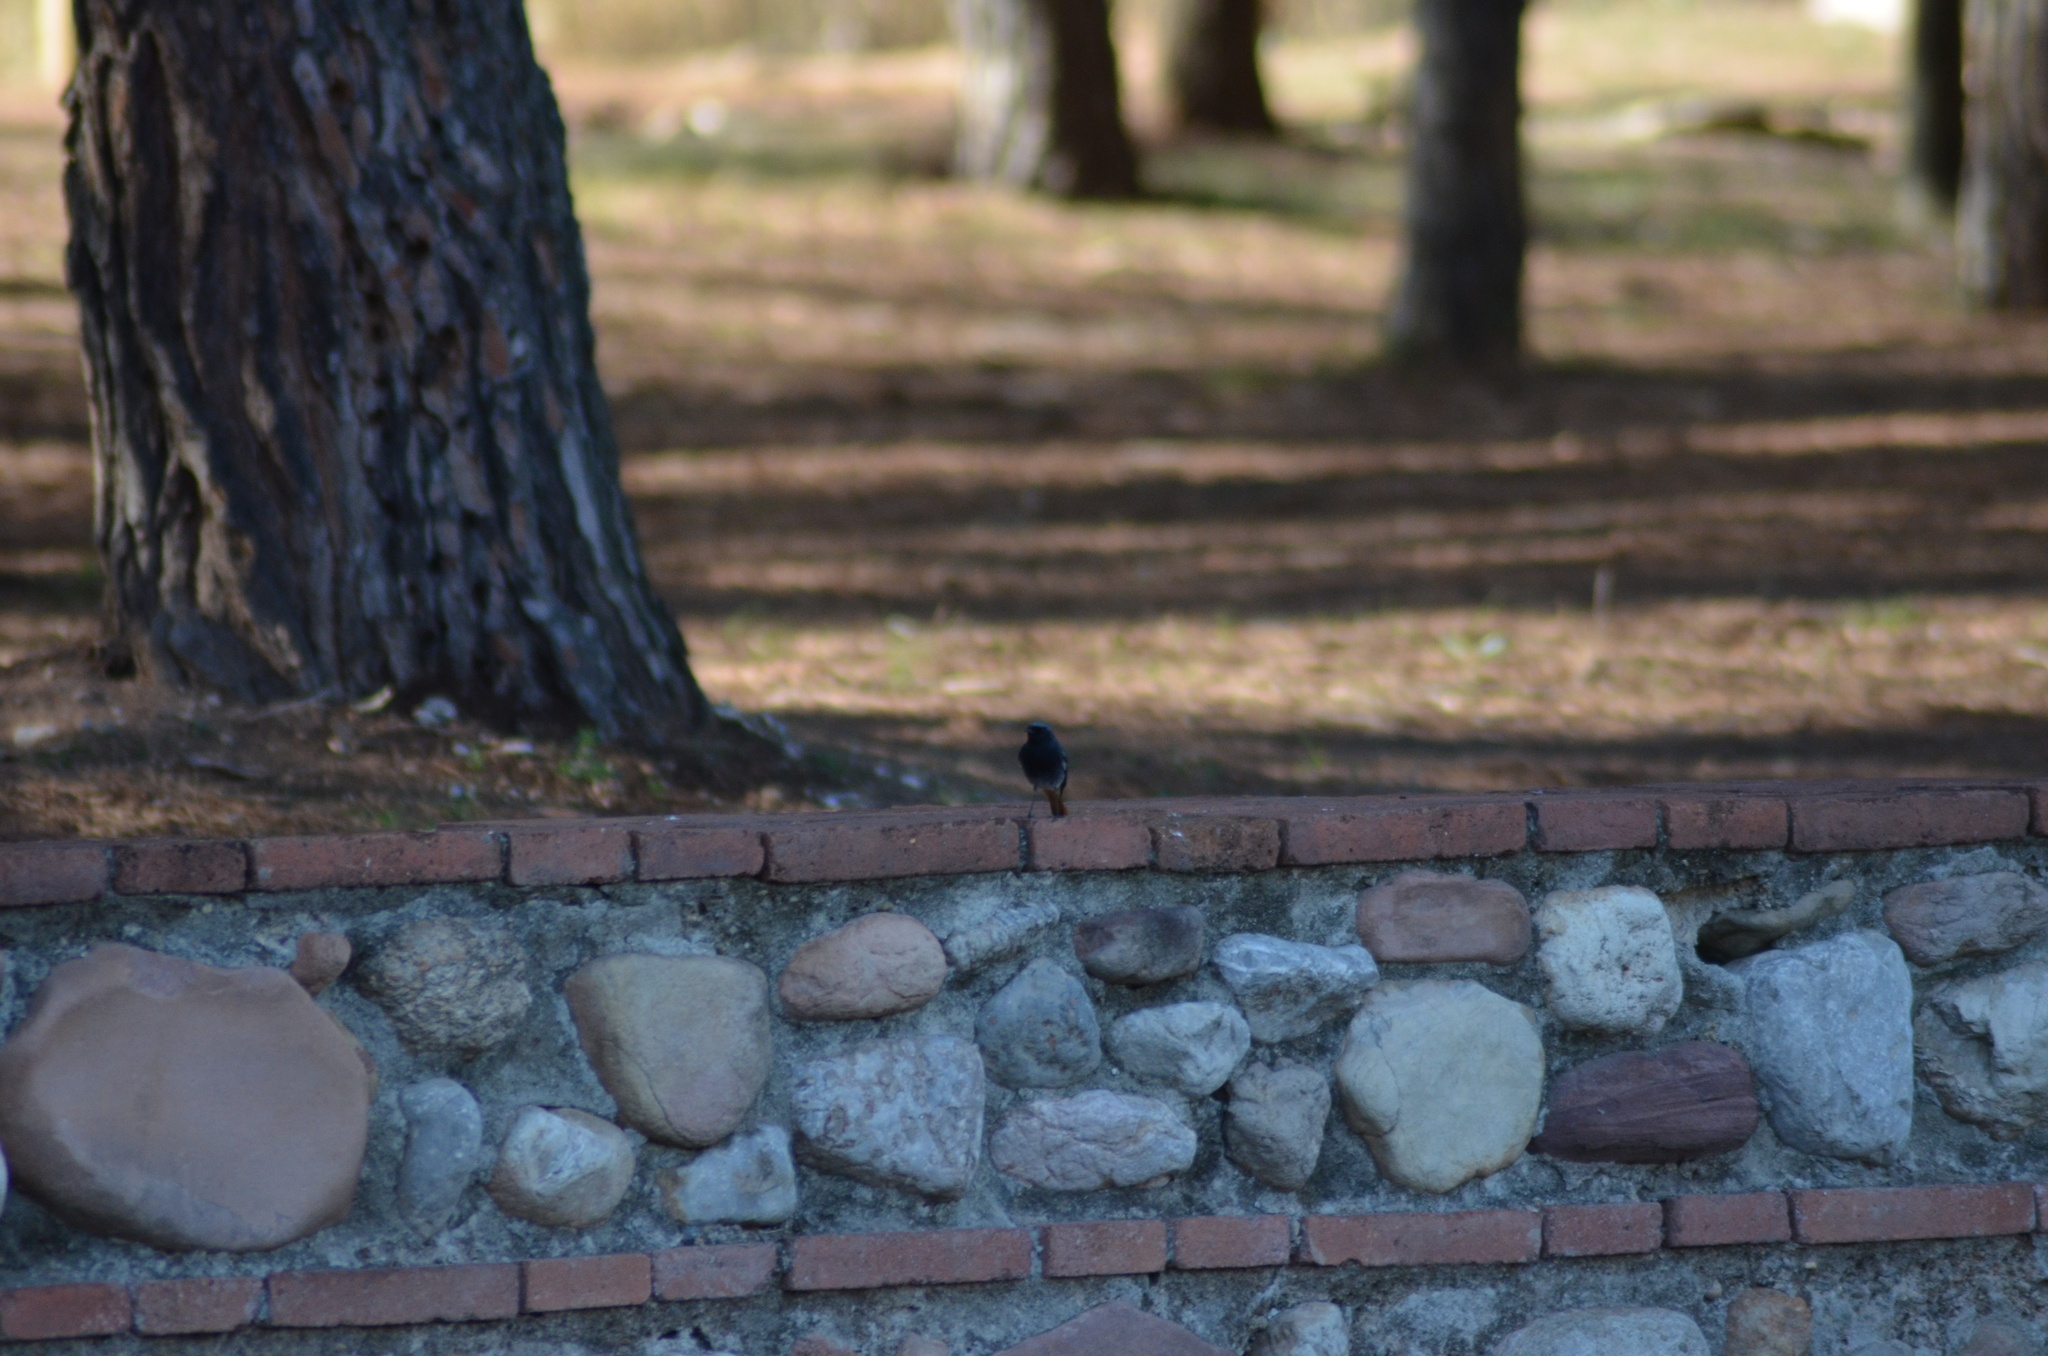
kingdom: Animalia
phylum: Chordata
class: Aves
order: Passeriformes
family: Muscicapidae
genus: Phoenicurus
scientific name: Phoenicurus ochruros
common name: Black redstart
